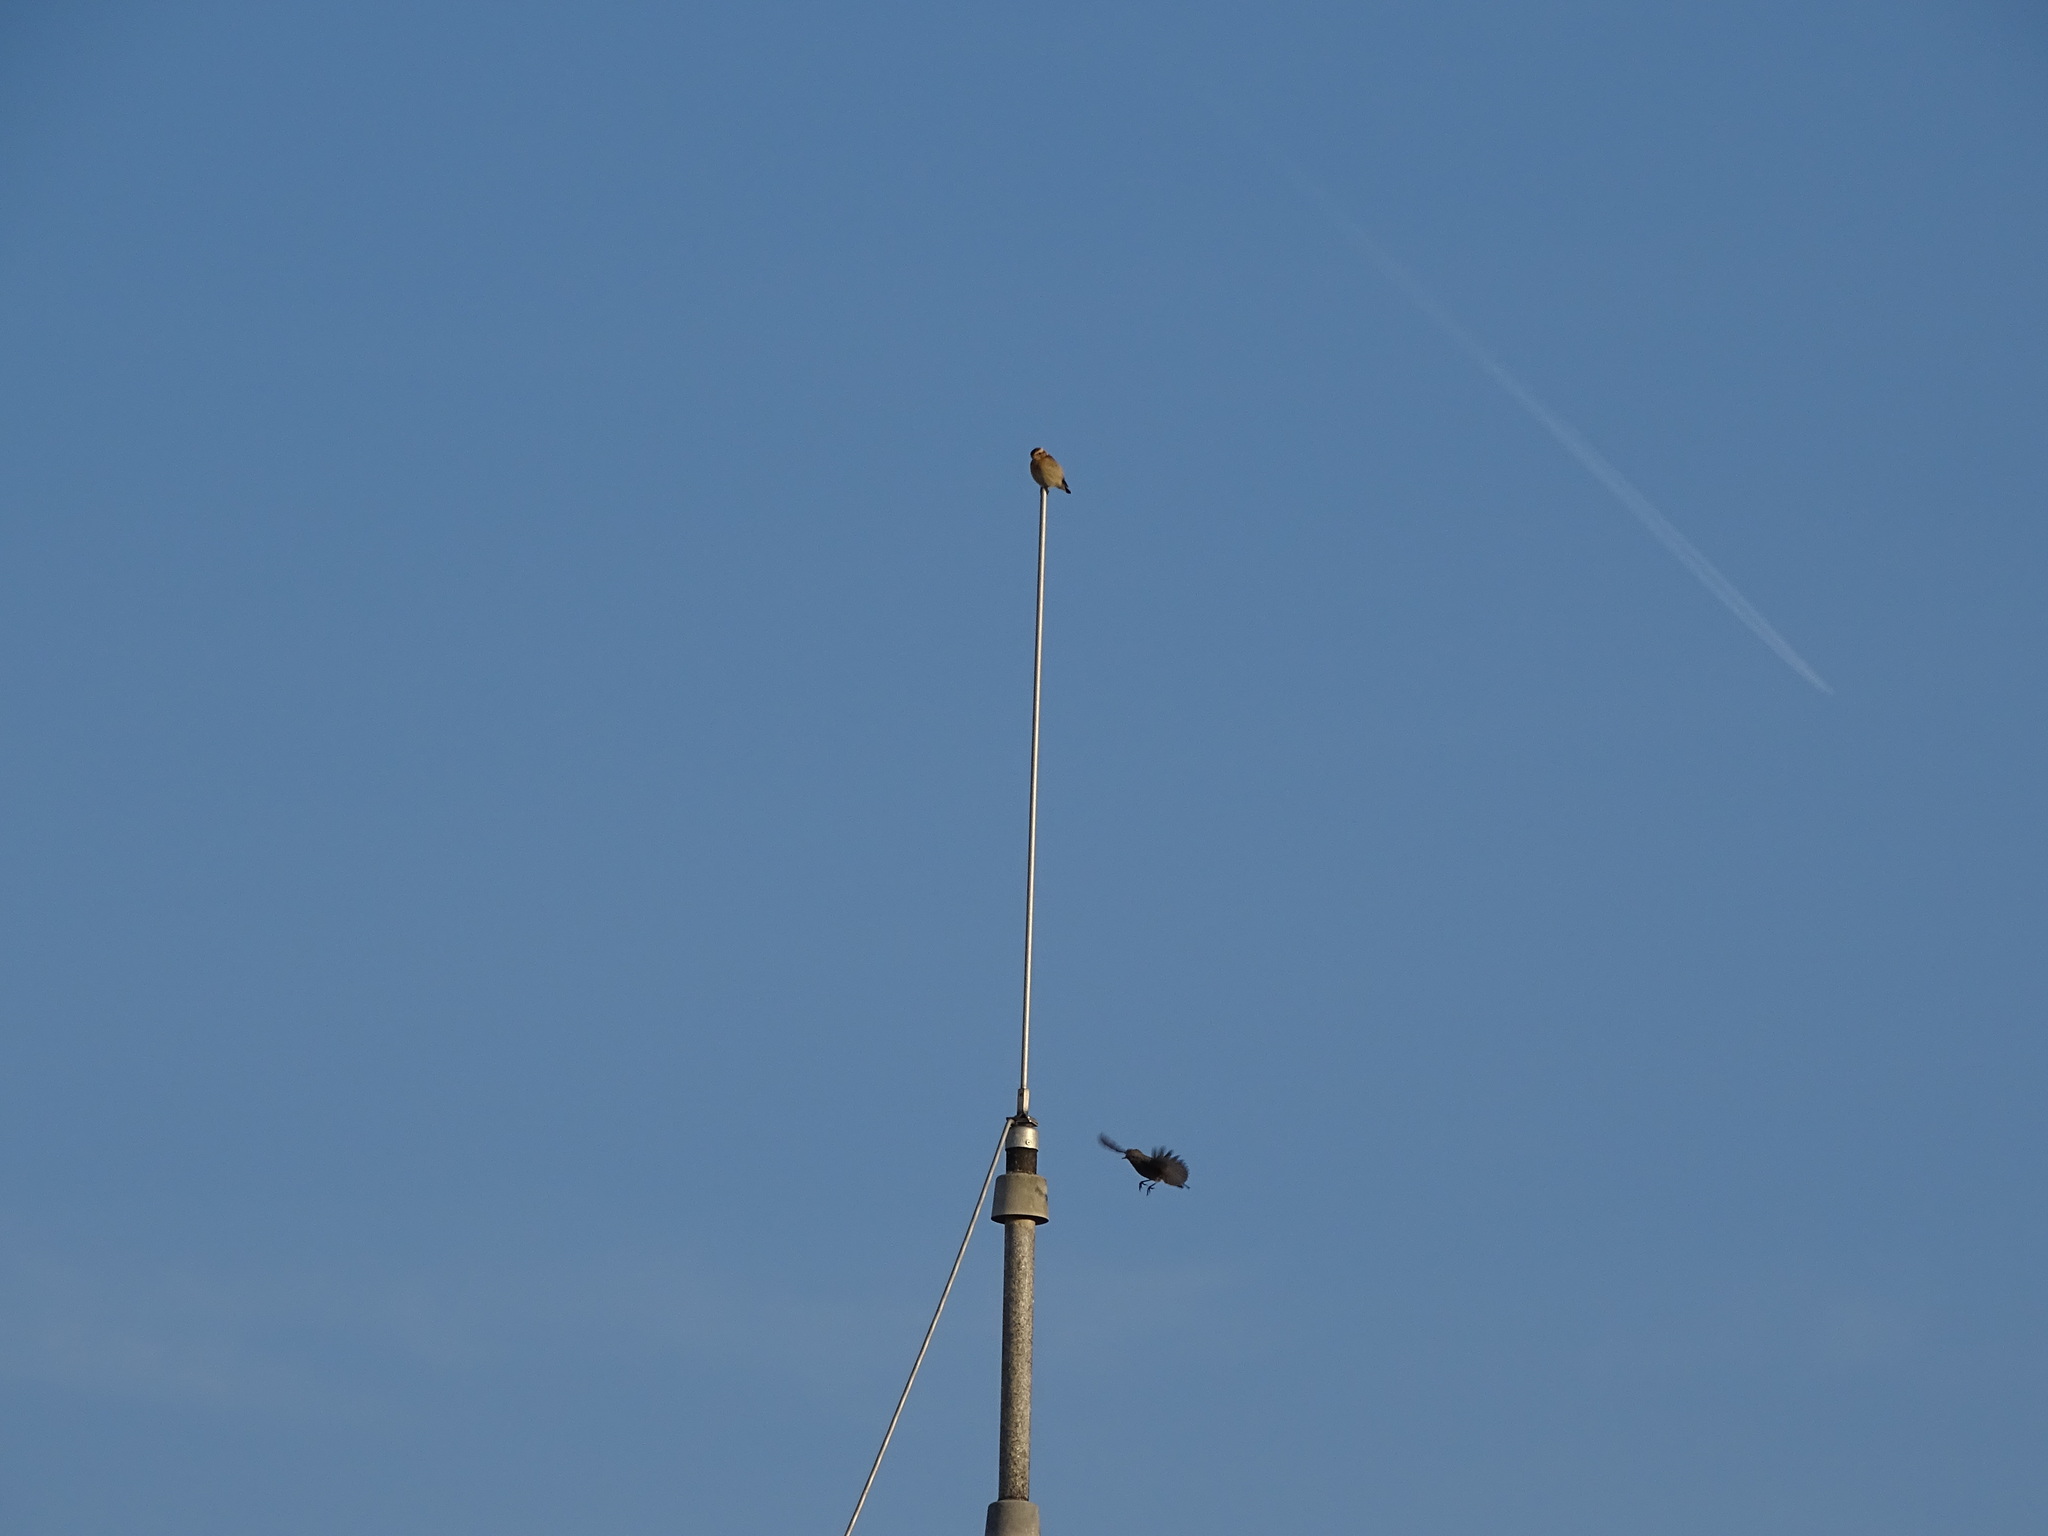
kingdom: Animalia
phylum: Chordata
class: Aves
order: Passeriformes
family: Muscicapidae
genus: Saxicola
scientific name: Saxicola rubetra
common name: Whinchat
